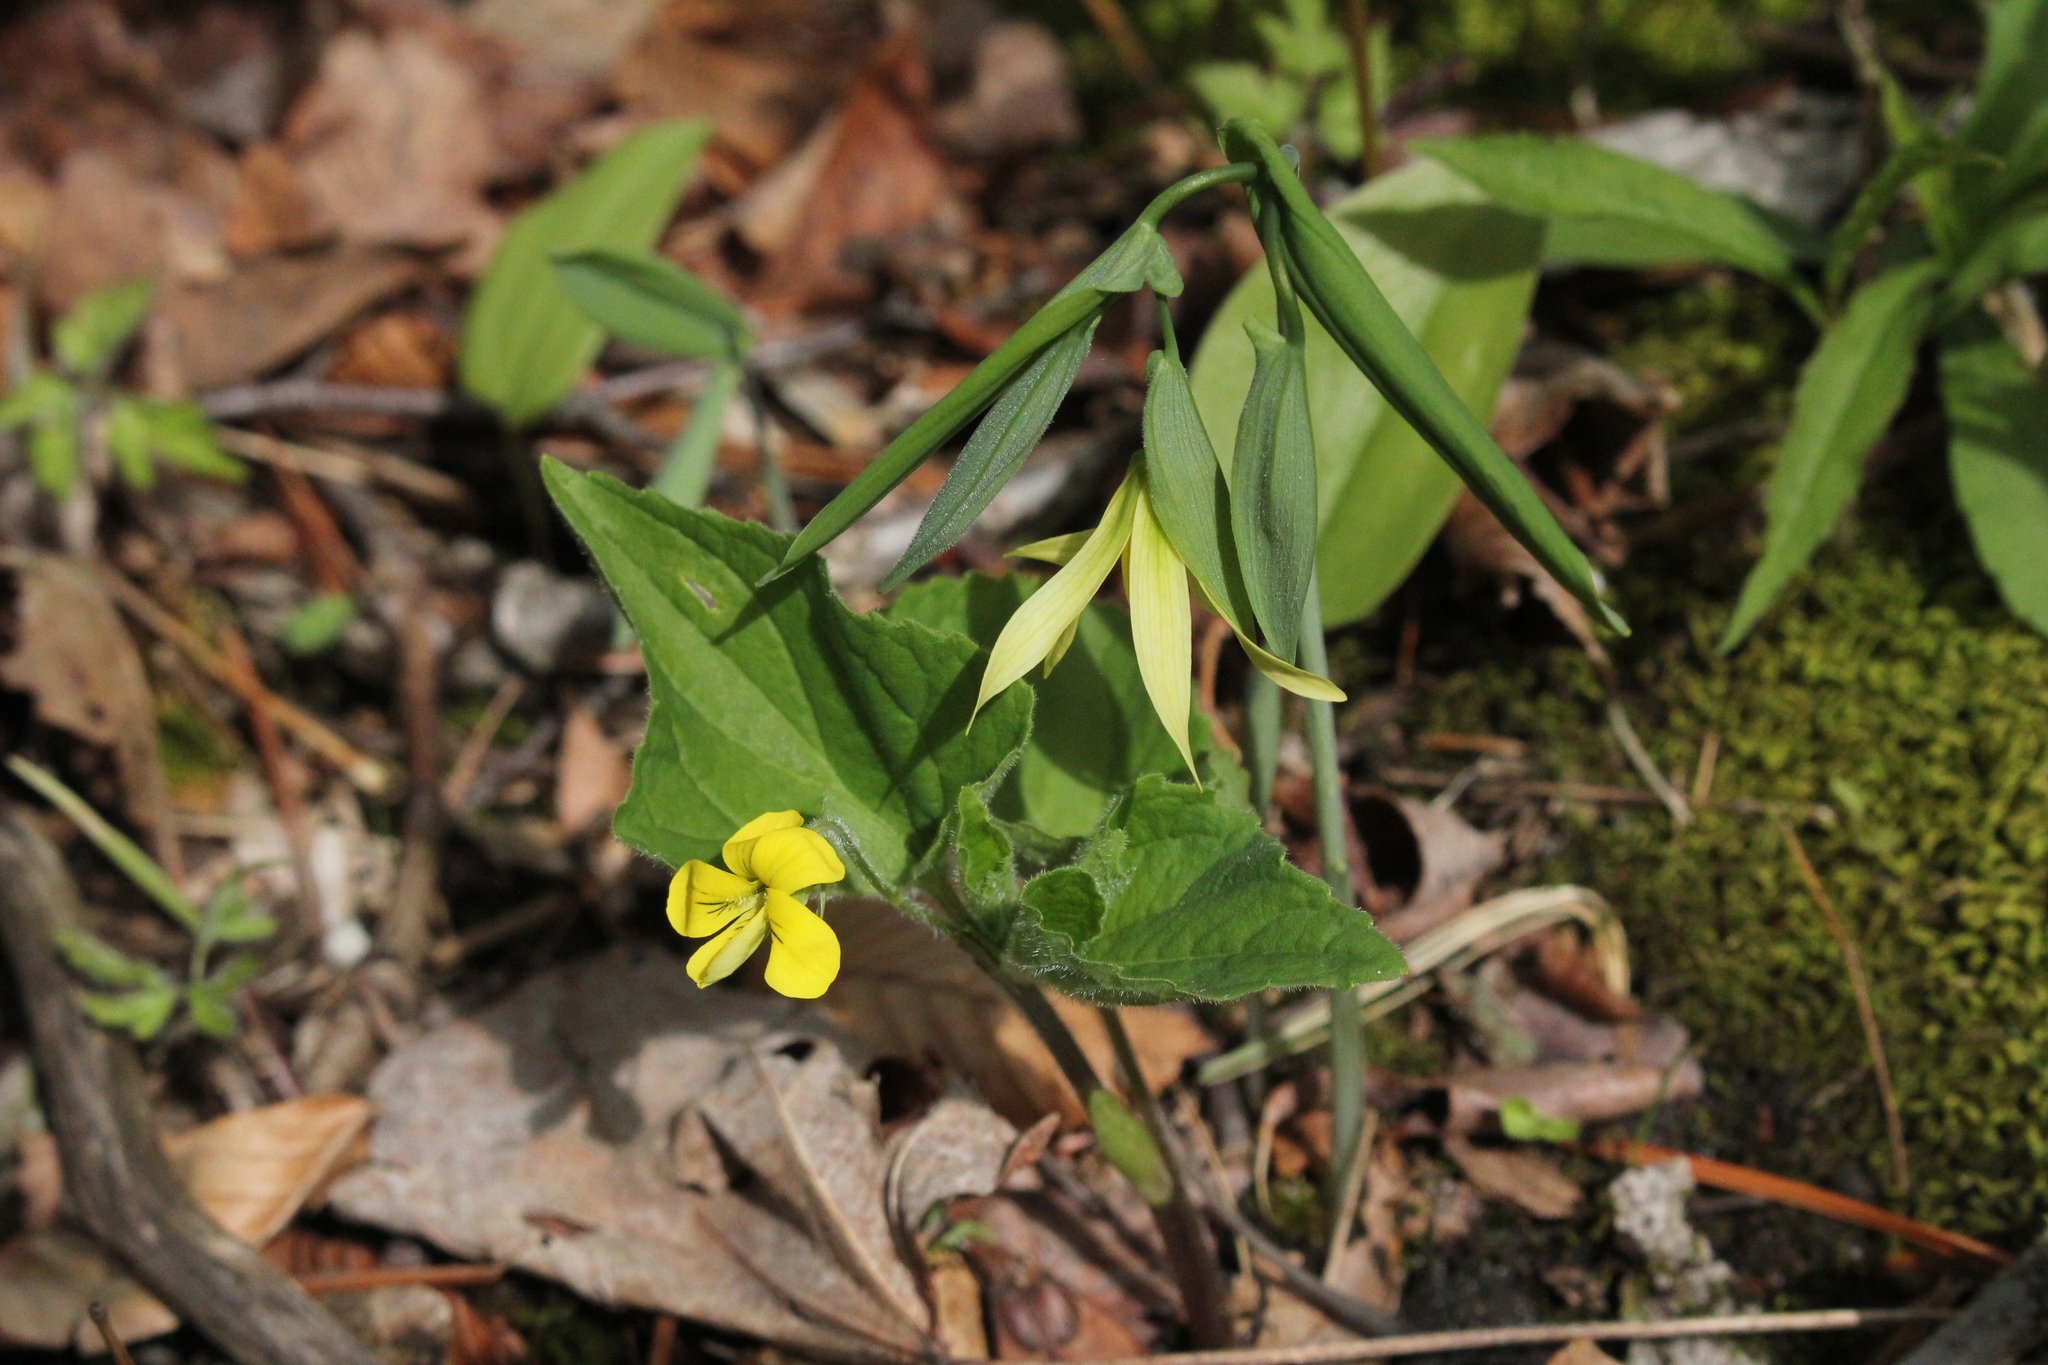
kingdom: Plantae
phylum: Tracheophyta
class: Liliopsida
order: Liliales
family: Colchicaceae
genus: Uvularia
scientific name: Uvularia grandiflora
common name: Bellwort
